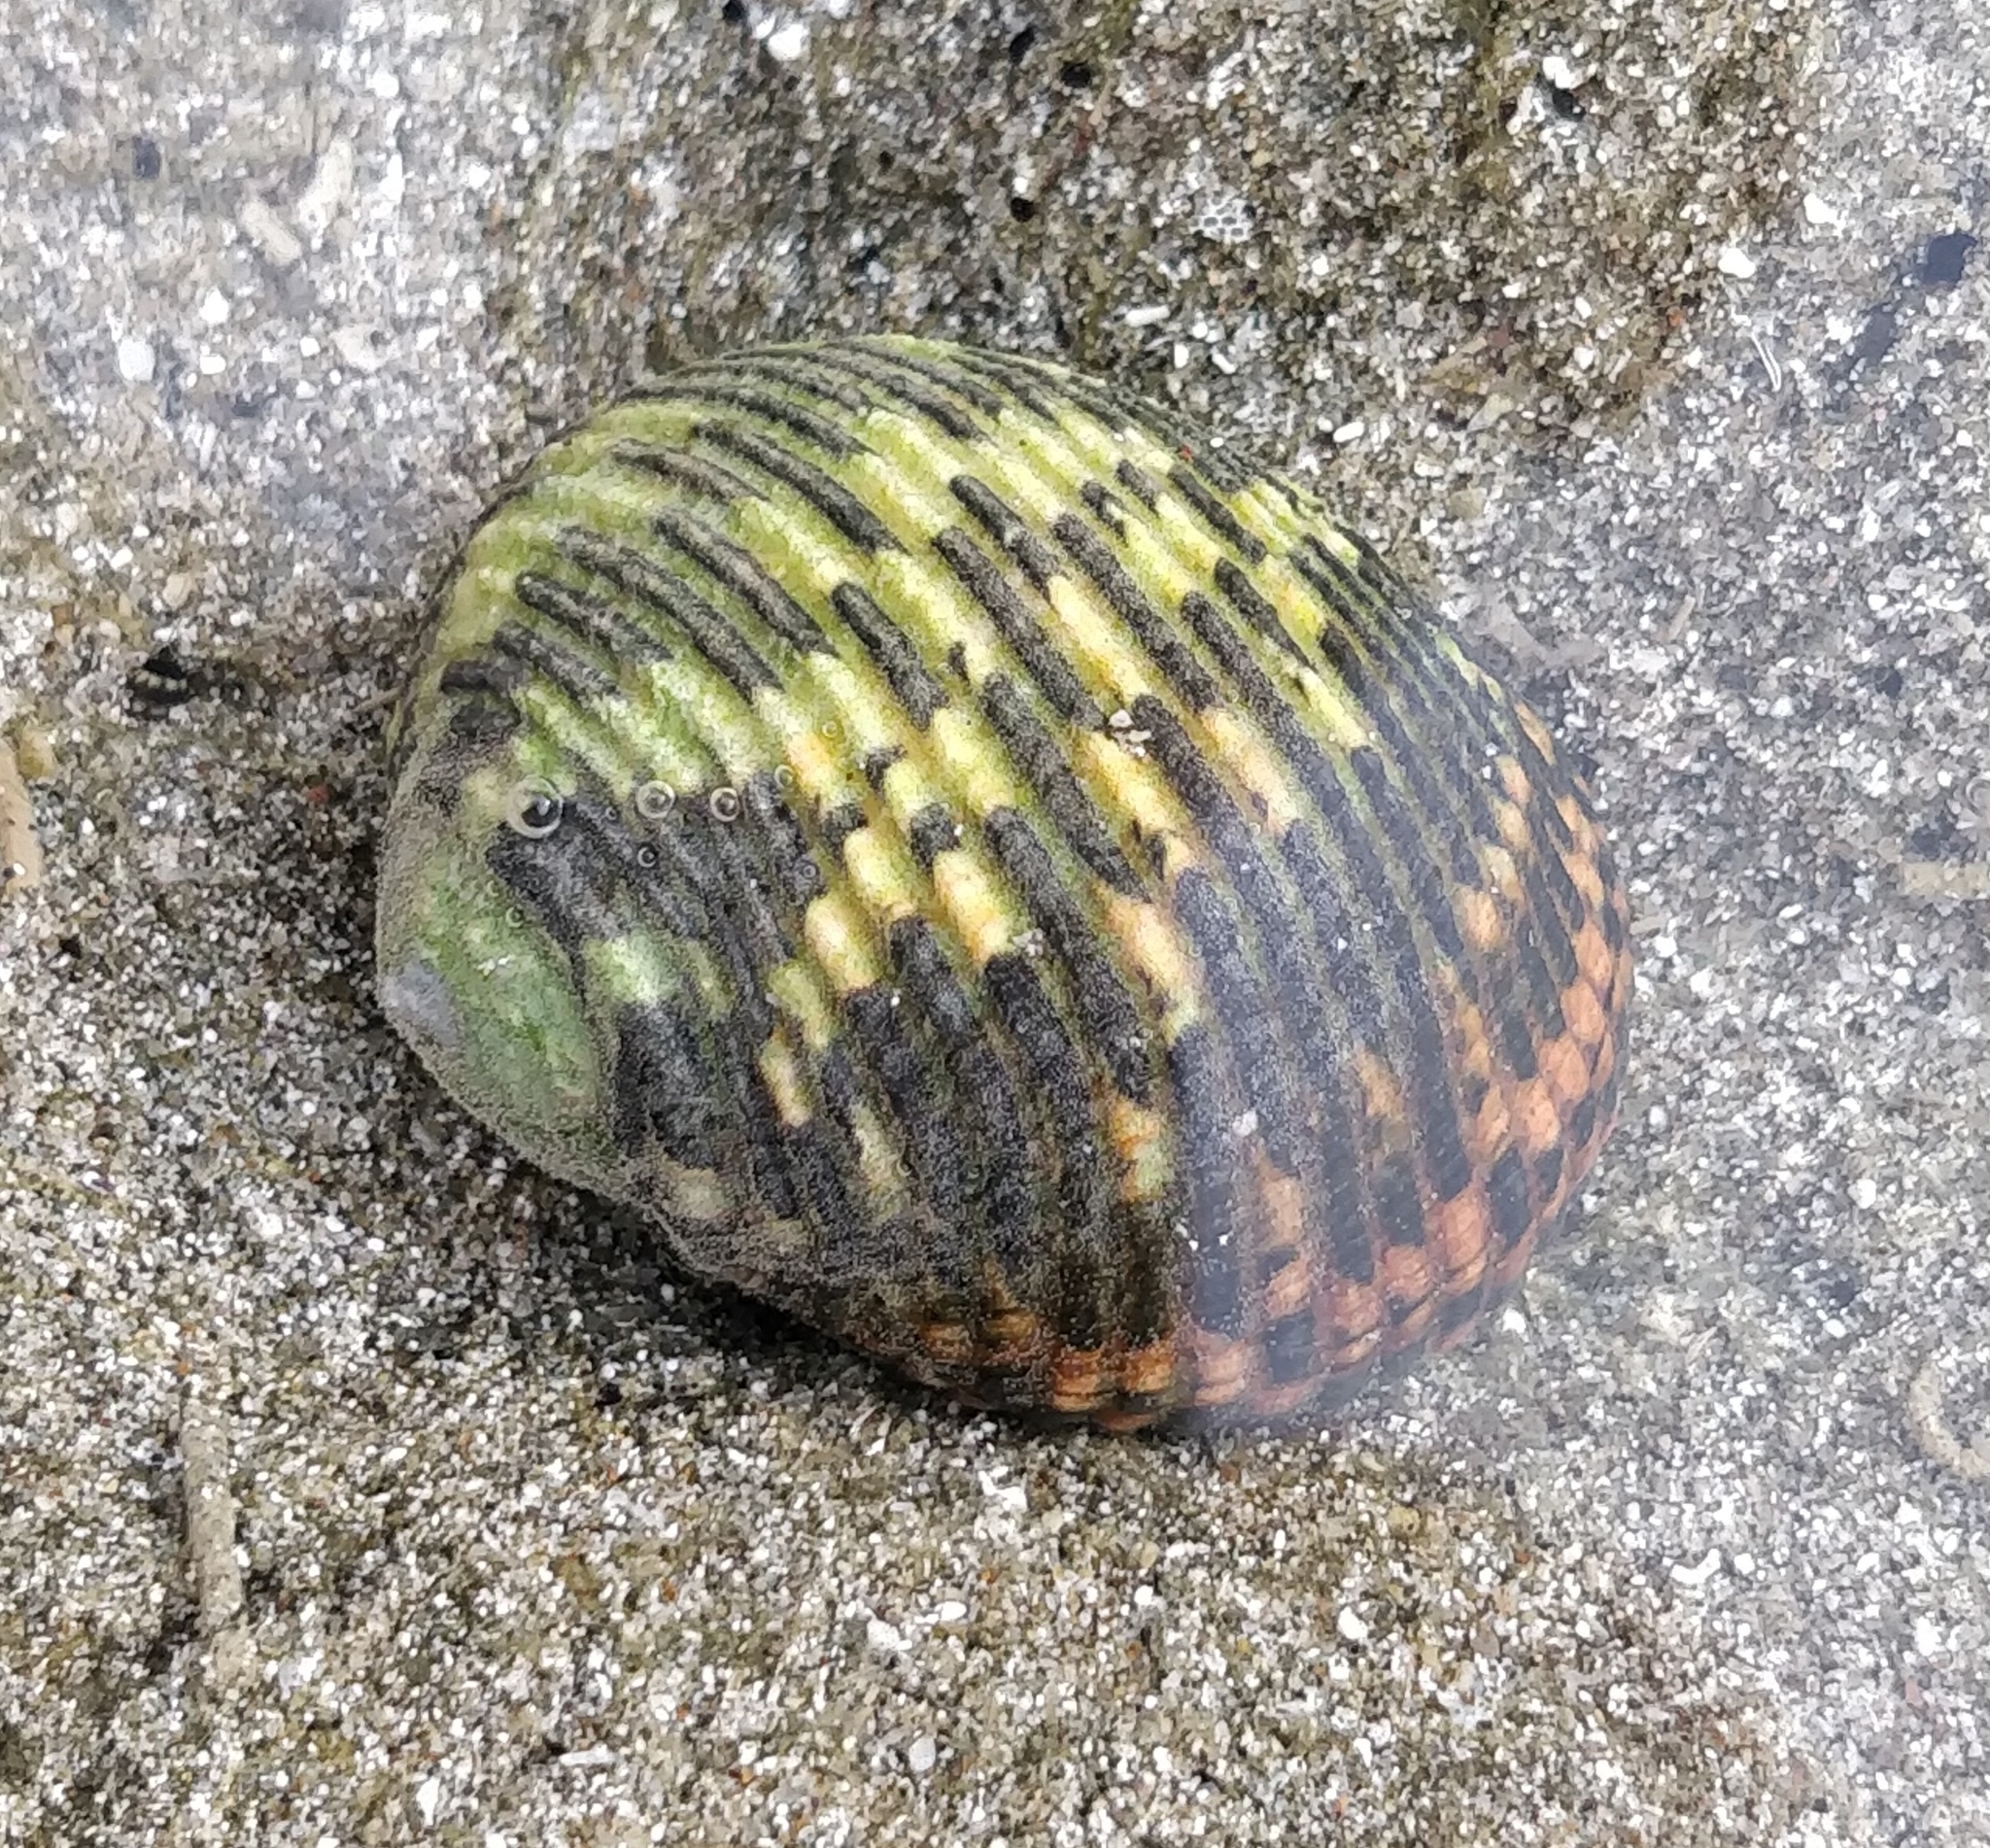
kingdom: Animalia
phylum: Mollusca
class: Gastropoda
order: Cycloneritida
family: Neritidae
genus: Nerita
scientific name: Nerita scabricosta
